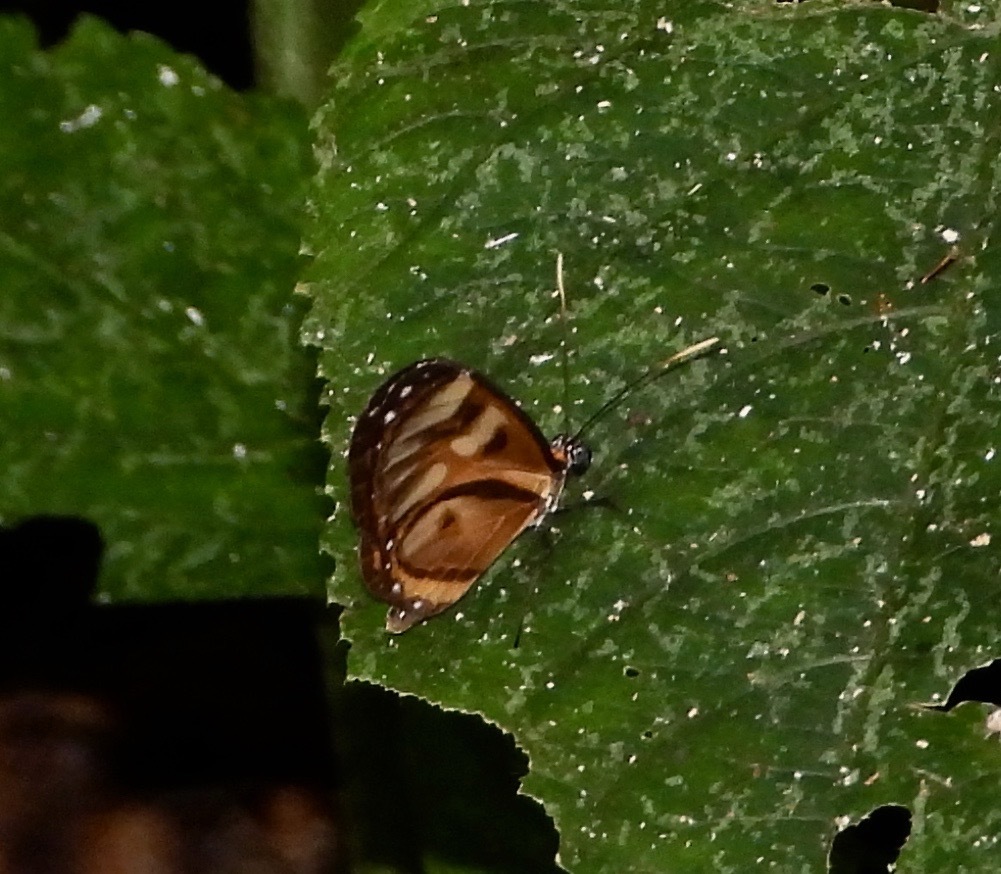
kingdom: Animalia
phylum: Arthropoda
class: Insecta
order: Lepidoptera
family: Nymphalidae
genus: Ithomia
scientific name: Ithomia iphianassa
